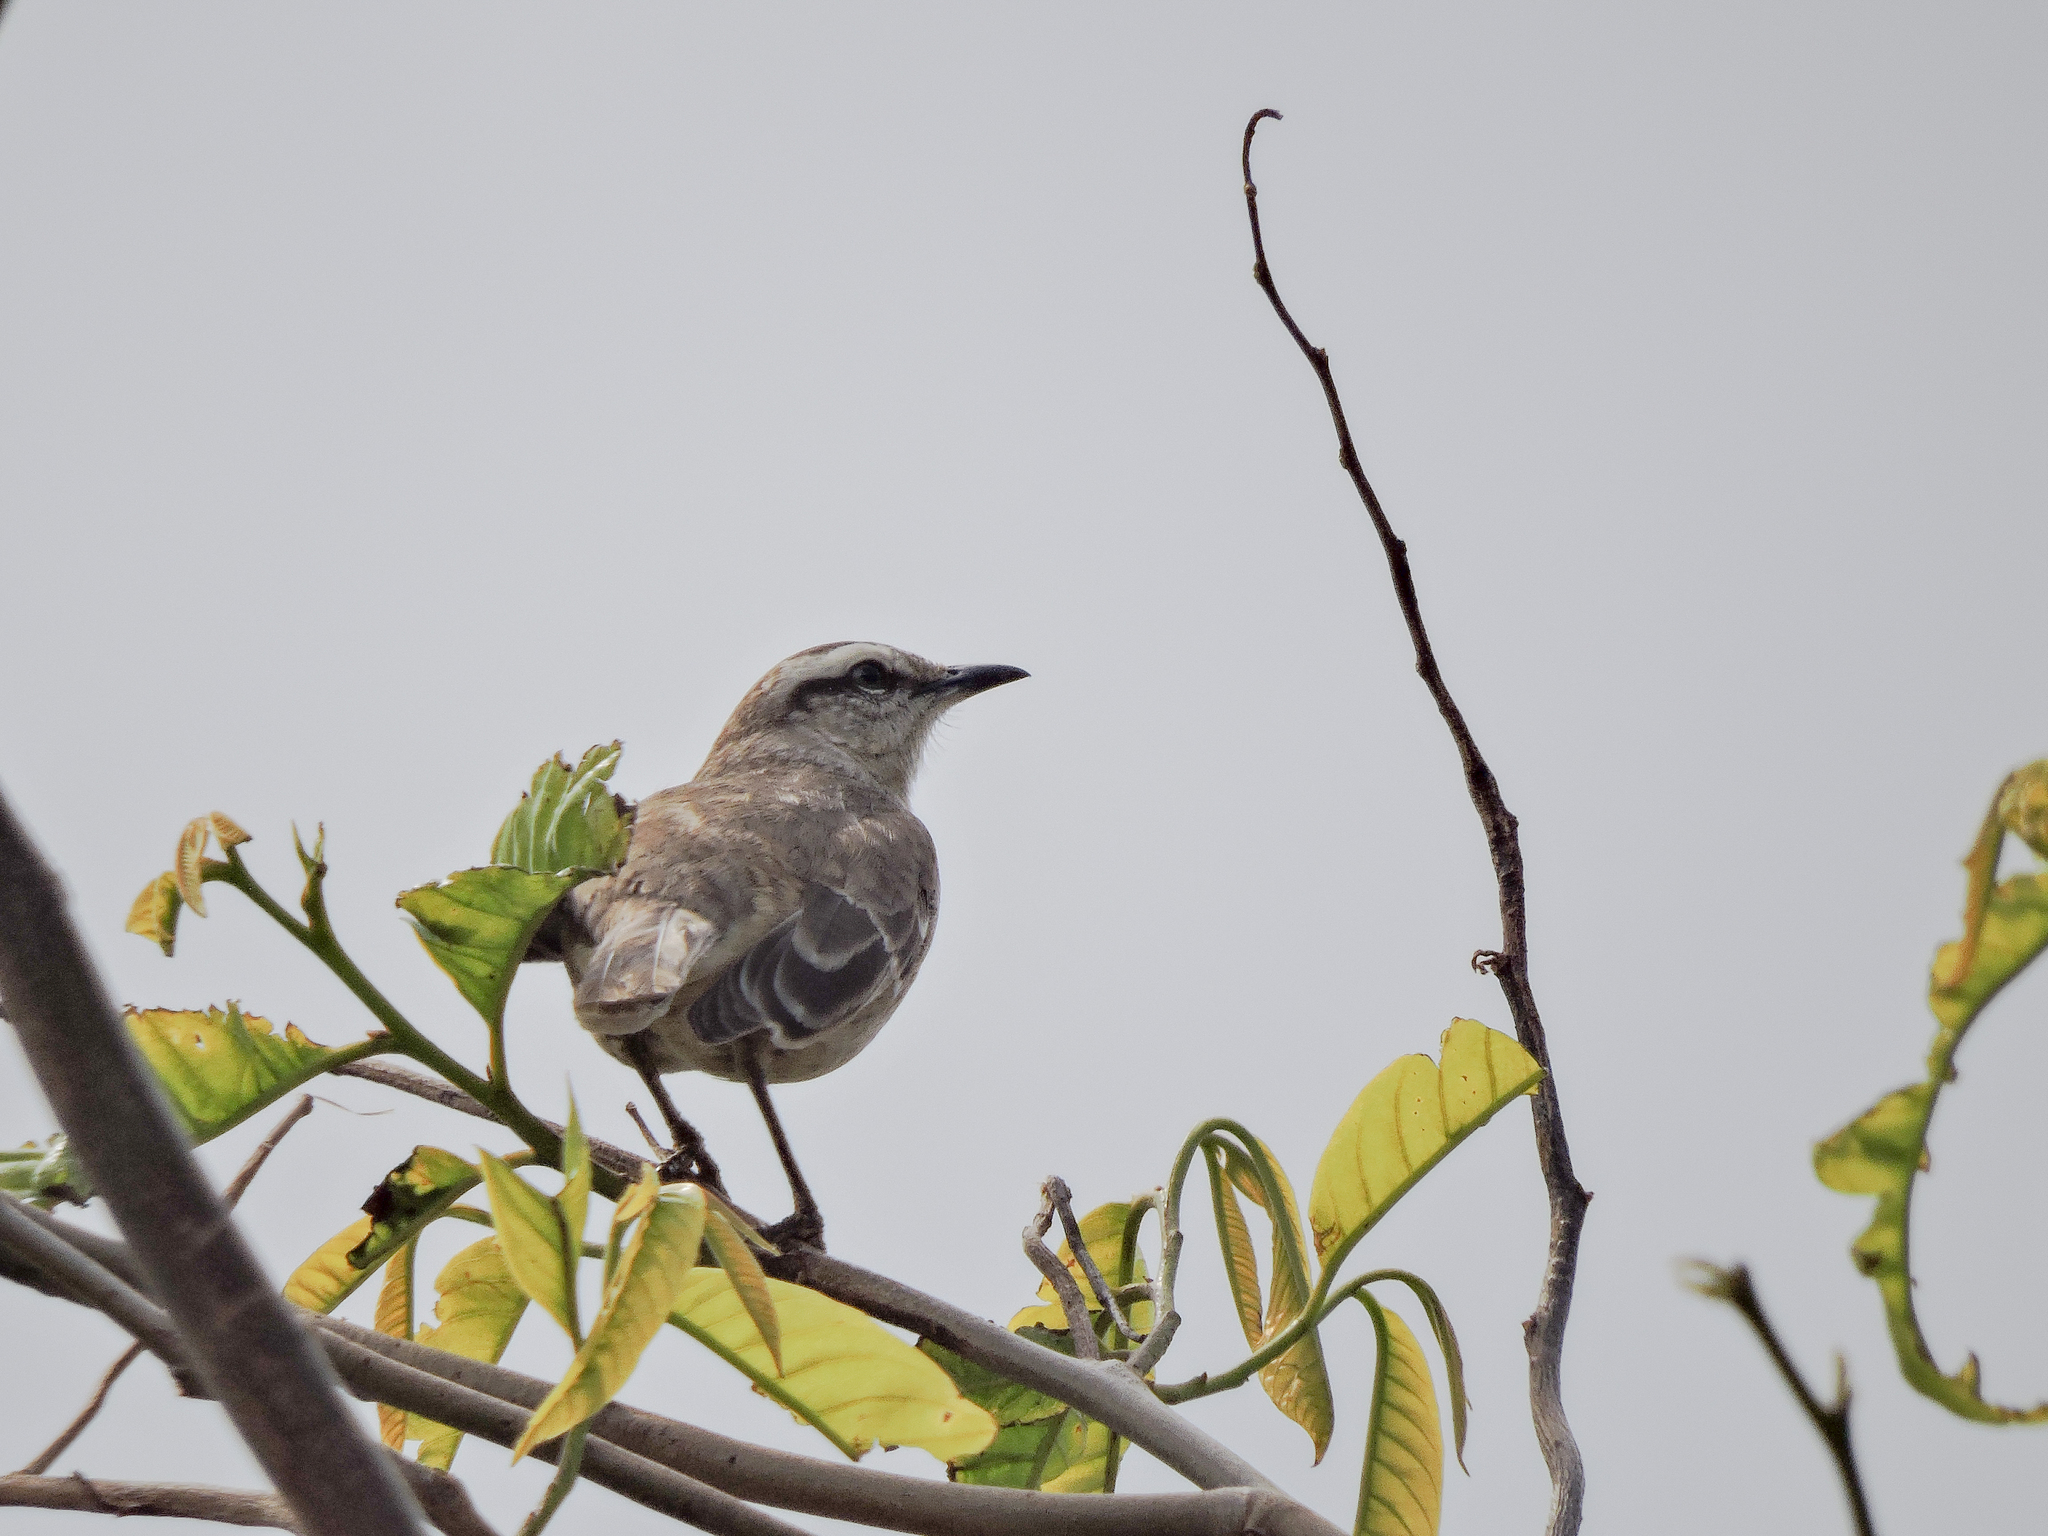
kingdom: Animalia
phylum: Chordata
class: Aves
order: Passeriformes
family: Mimidae
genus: Mimus
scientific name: Mimus saturninus
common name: Chalk-browed mockingbird
